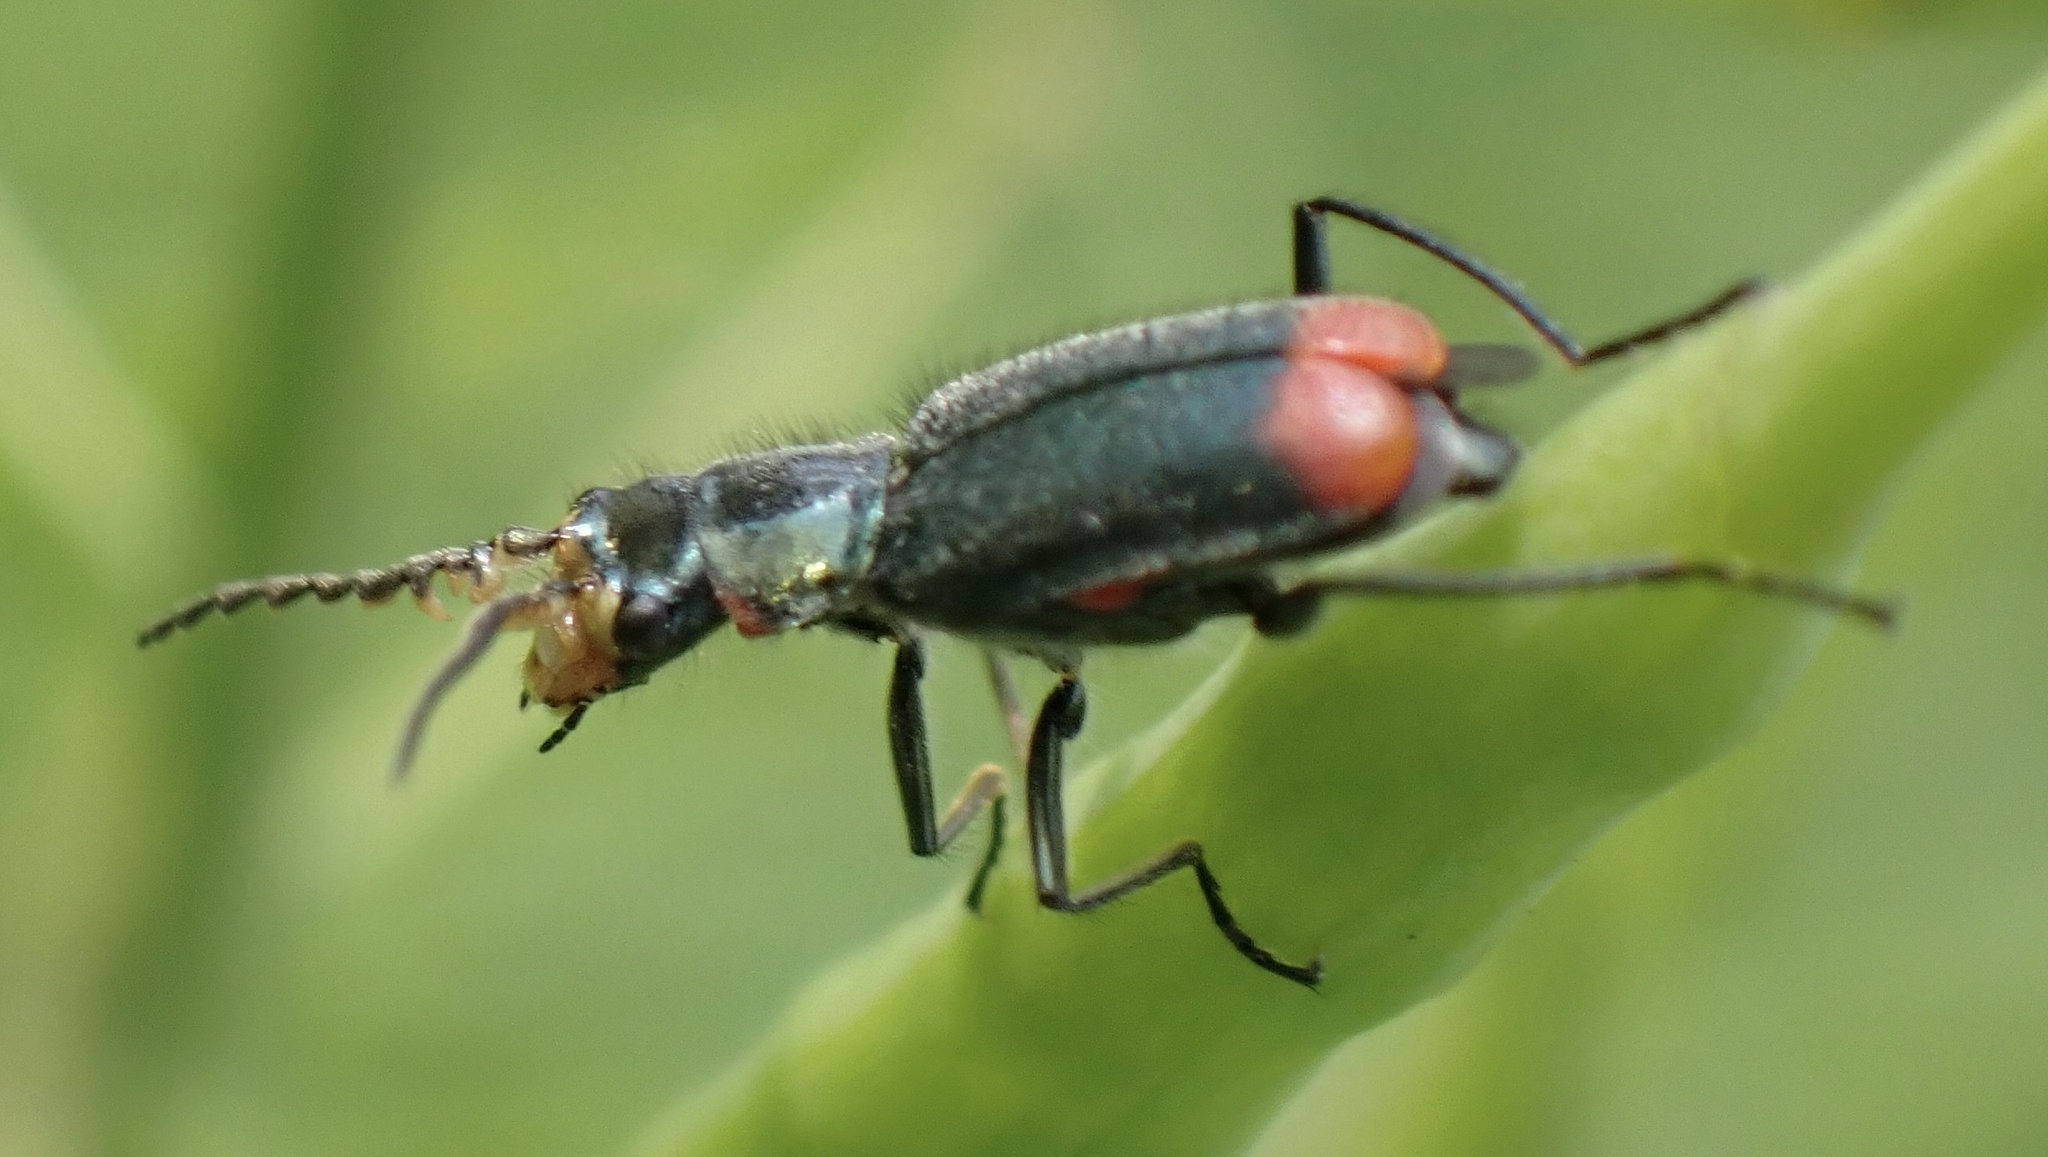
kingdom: Animalia
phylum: Arthropoda
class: Insecta
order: Coleoptera
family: Melyridae
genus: Malachius
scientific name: Malachius bipustulatus
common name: Malachite beetle
